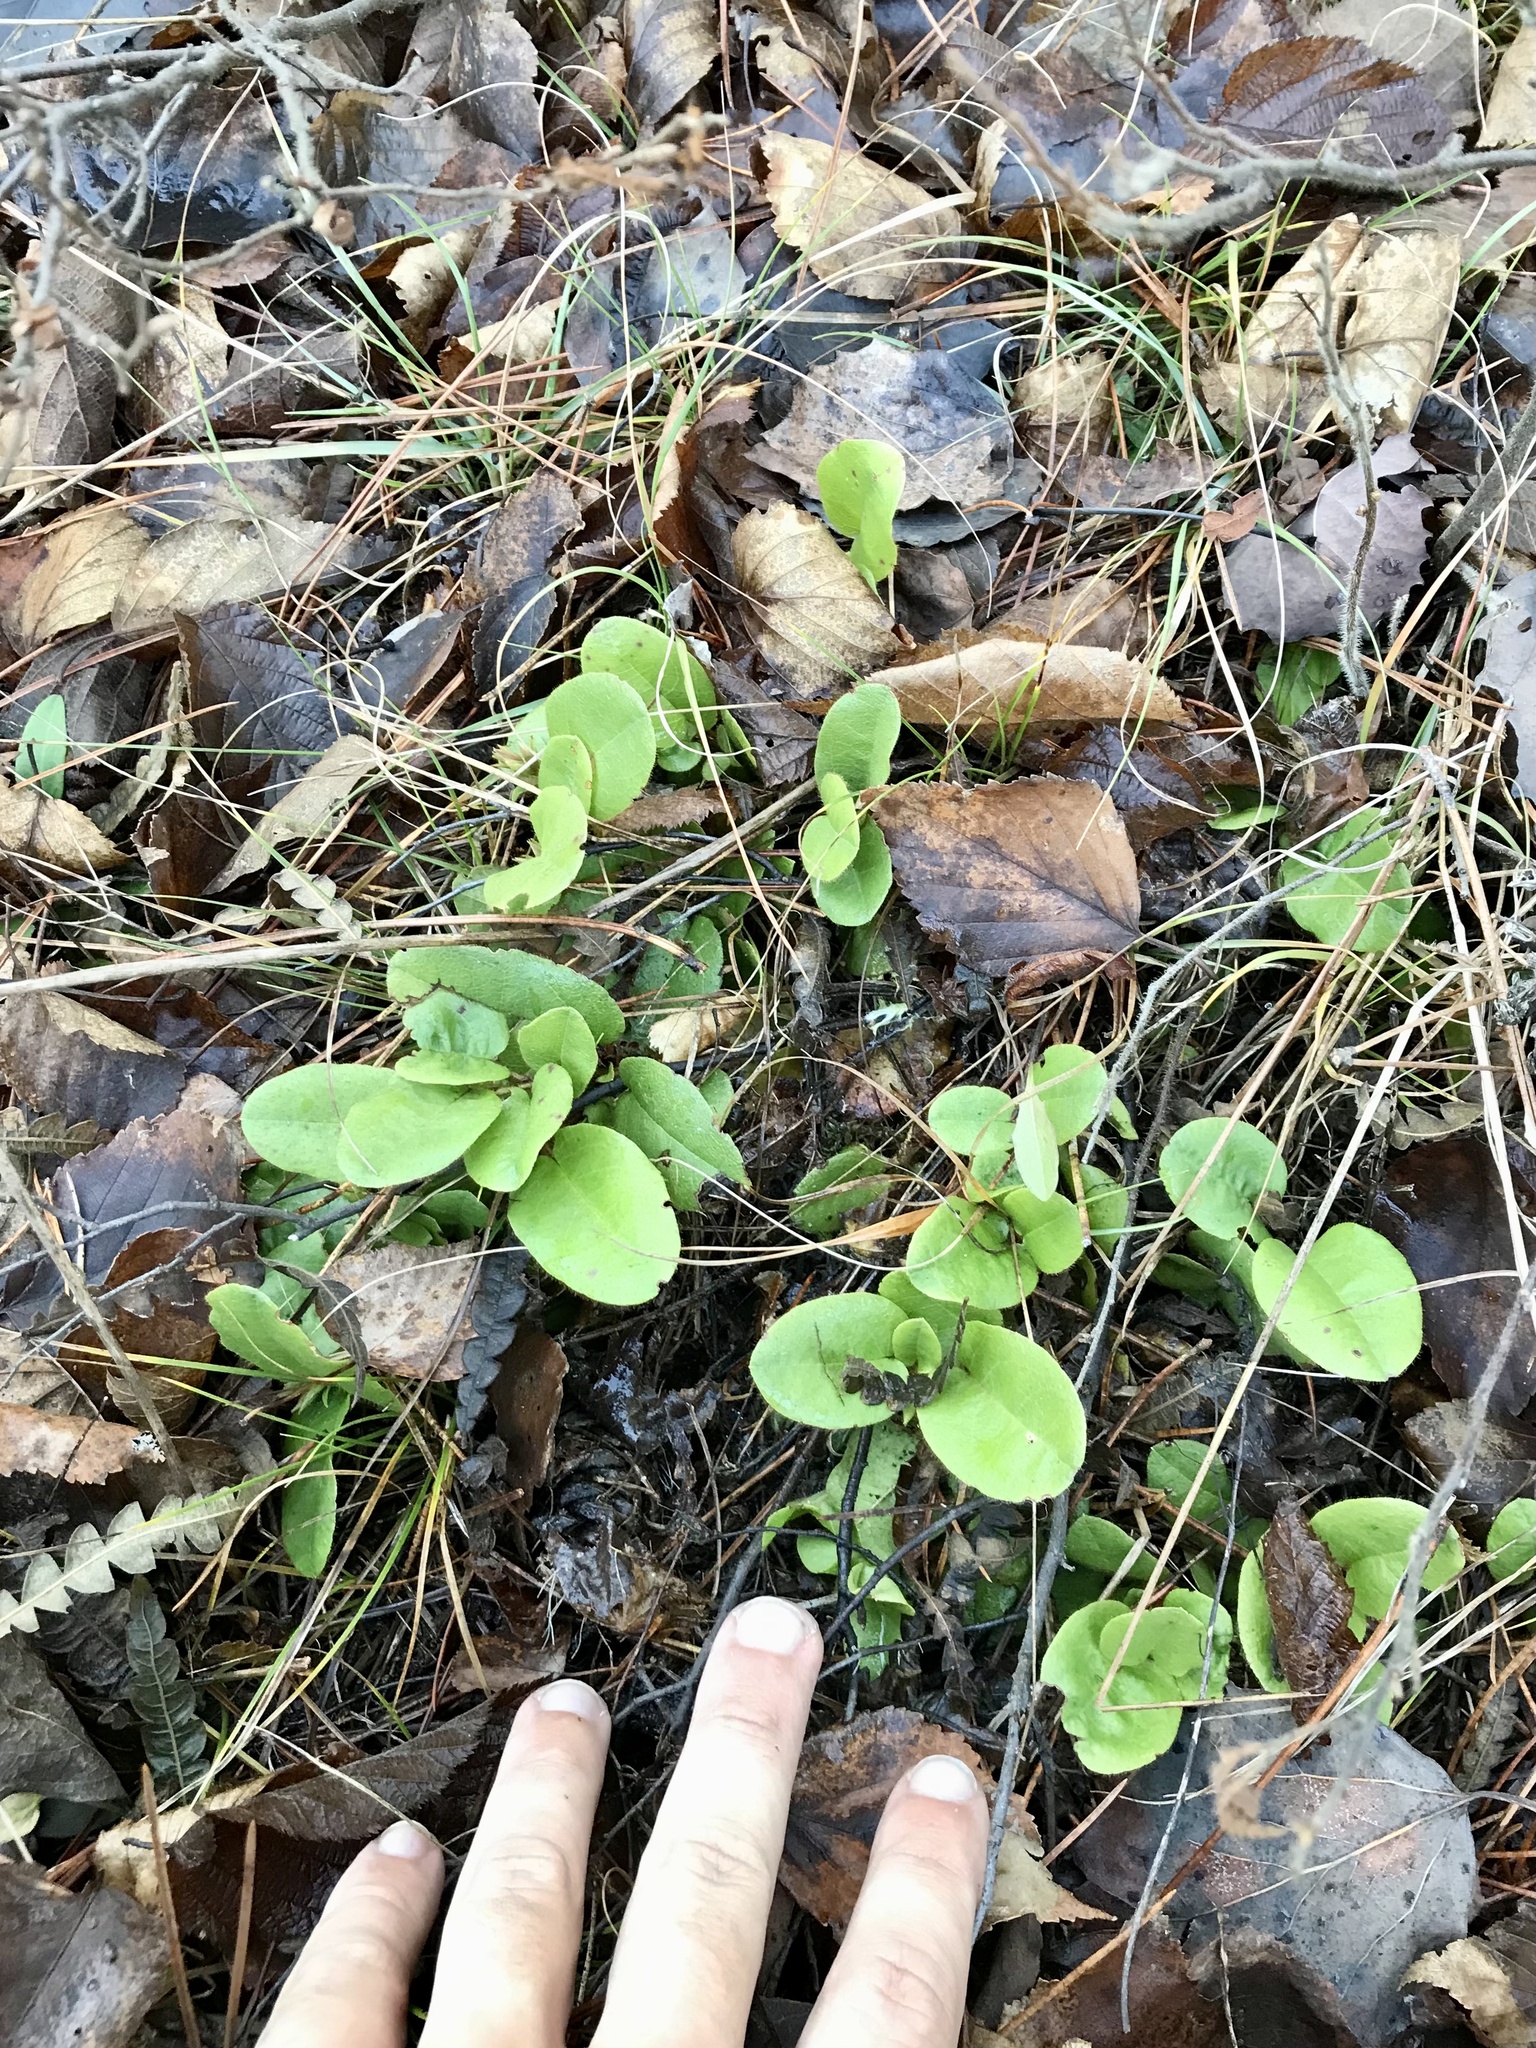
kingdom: Plantae
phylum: Tracheophyta
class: Magnoliopsida
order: Ericales
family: Ericaceae
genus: Epigaea
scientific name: Epigaea repens
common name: Gravelroot
